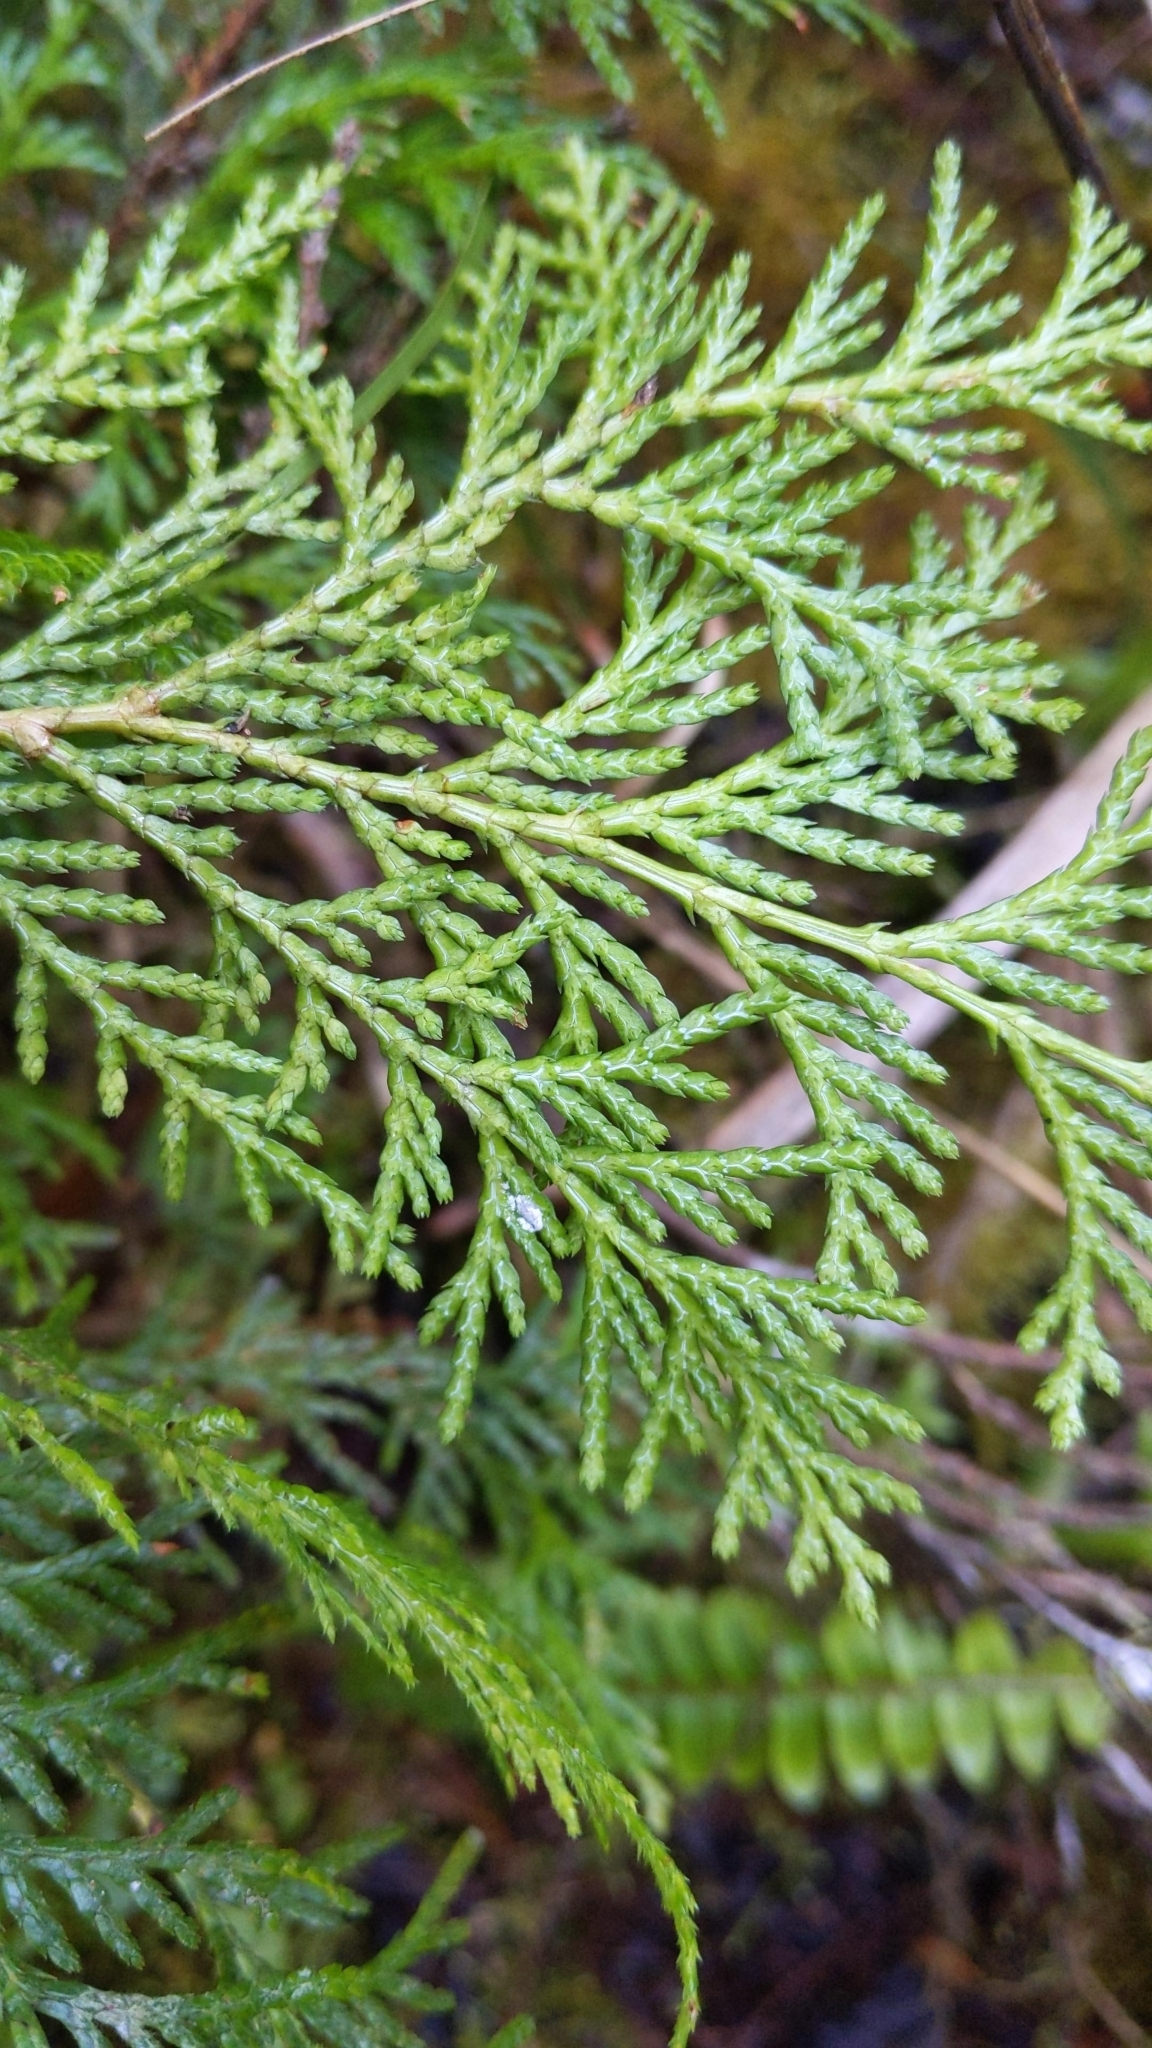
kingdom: Plantae
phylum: Tracheophyta
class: Pinopsida
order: Pinales
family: Cupressaceae
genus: Chamaecyparis
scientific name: Chamaecyparis obtusa
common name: Hinoki false cypress
